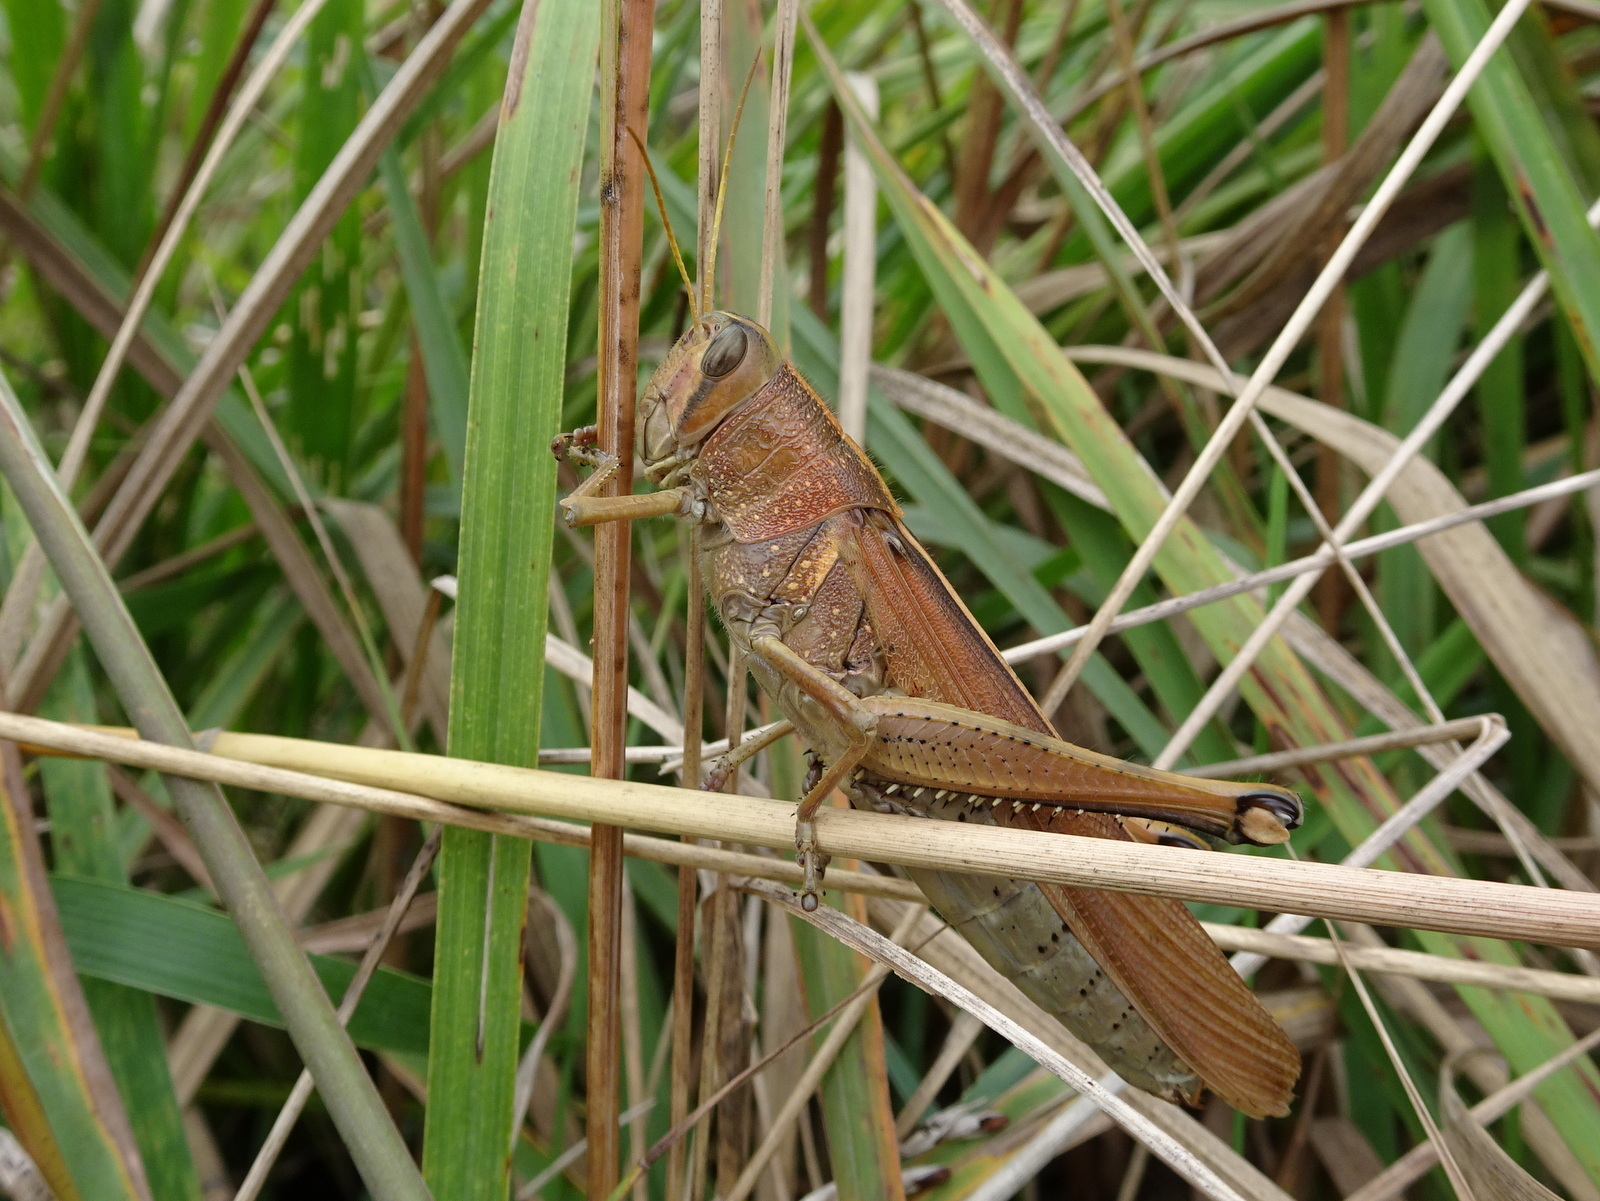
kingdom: Animalia
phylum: Arthropoda
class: Insecta
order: Orthoptera
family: Acrididae
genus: Schistocerca
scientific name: Schistocerca lineata
